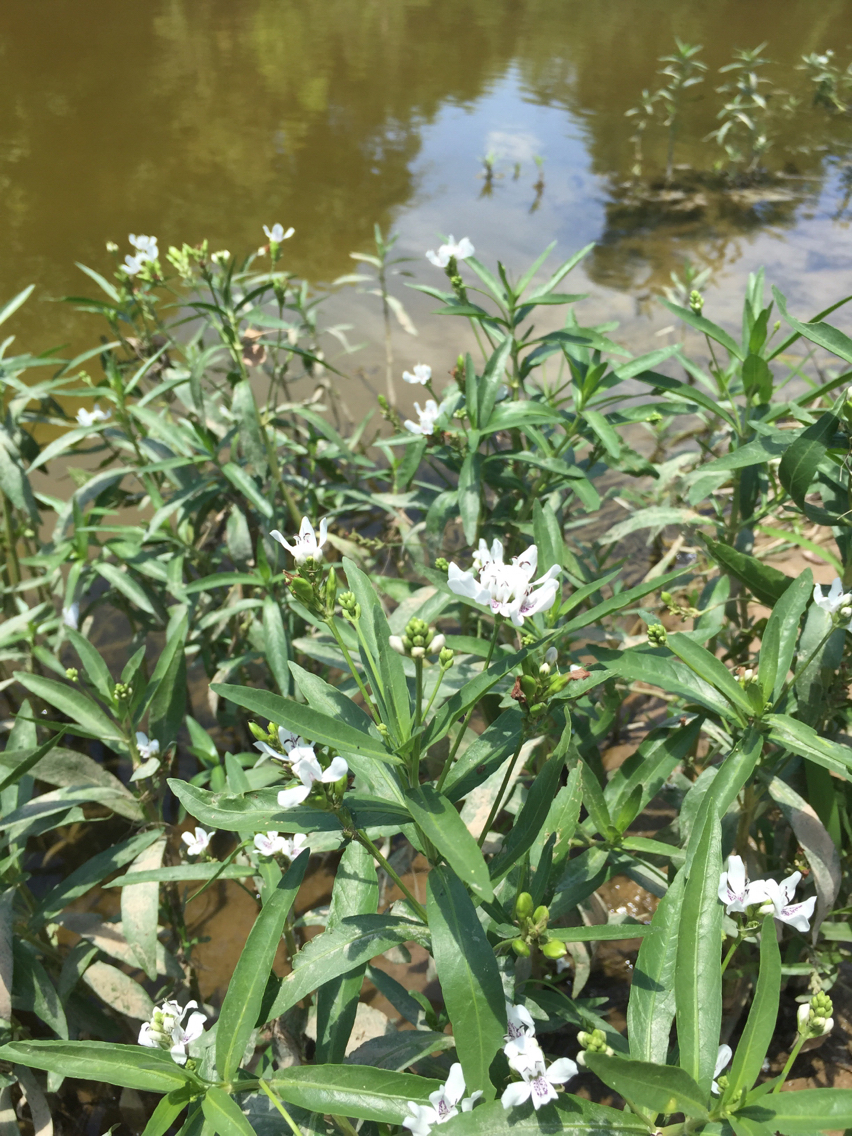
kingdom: Plantae
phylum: Tracheophyta
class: Magnoliopsida
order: Lamiales
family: Acanthaceae
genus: Dianthera
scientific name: Dianthera americana
